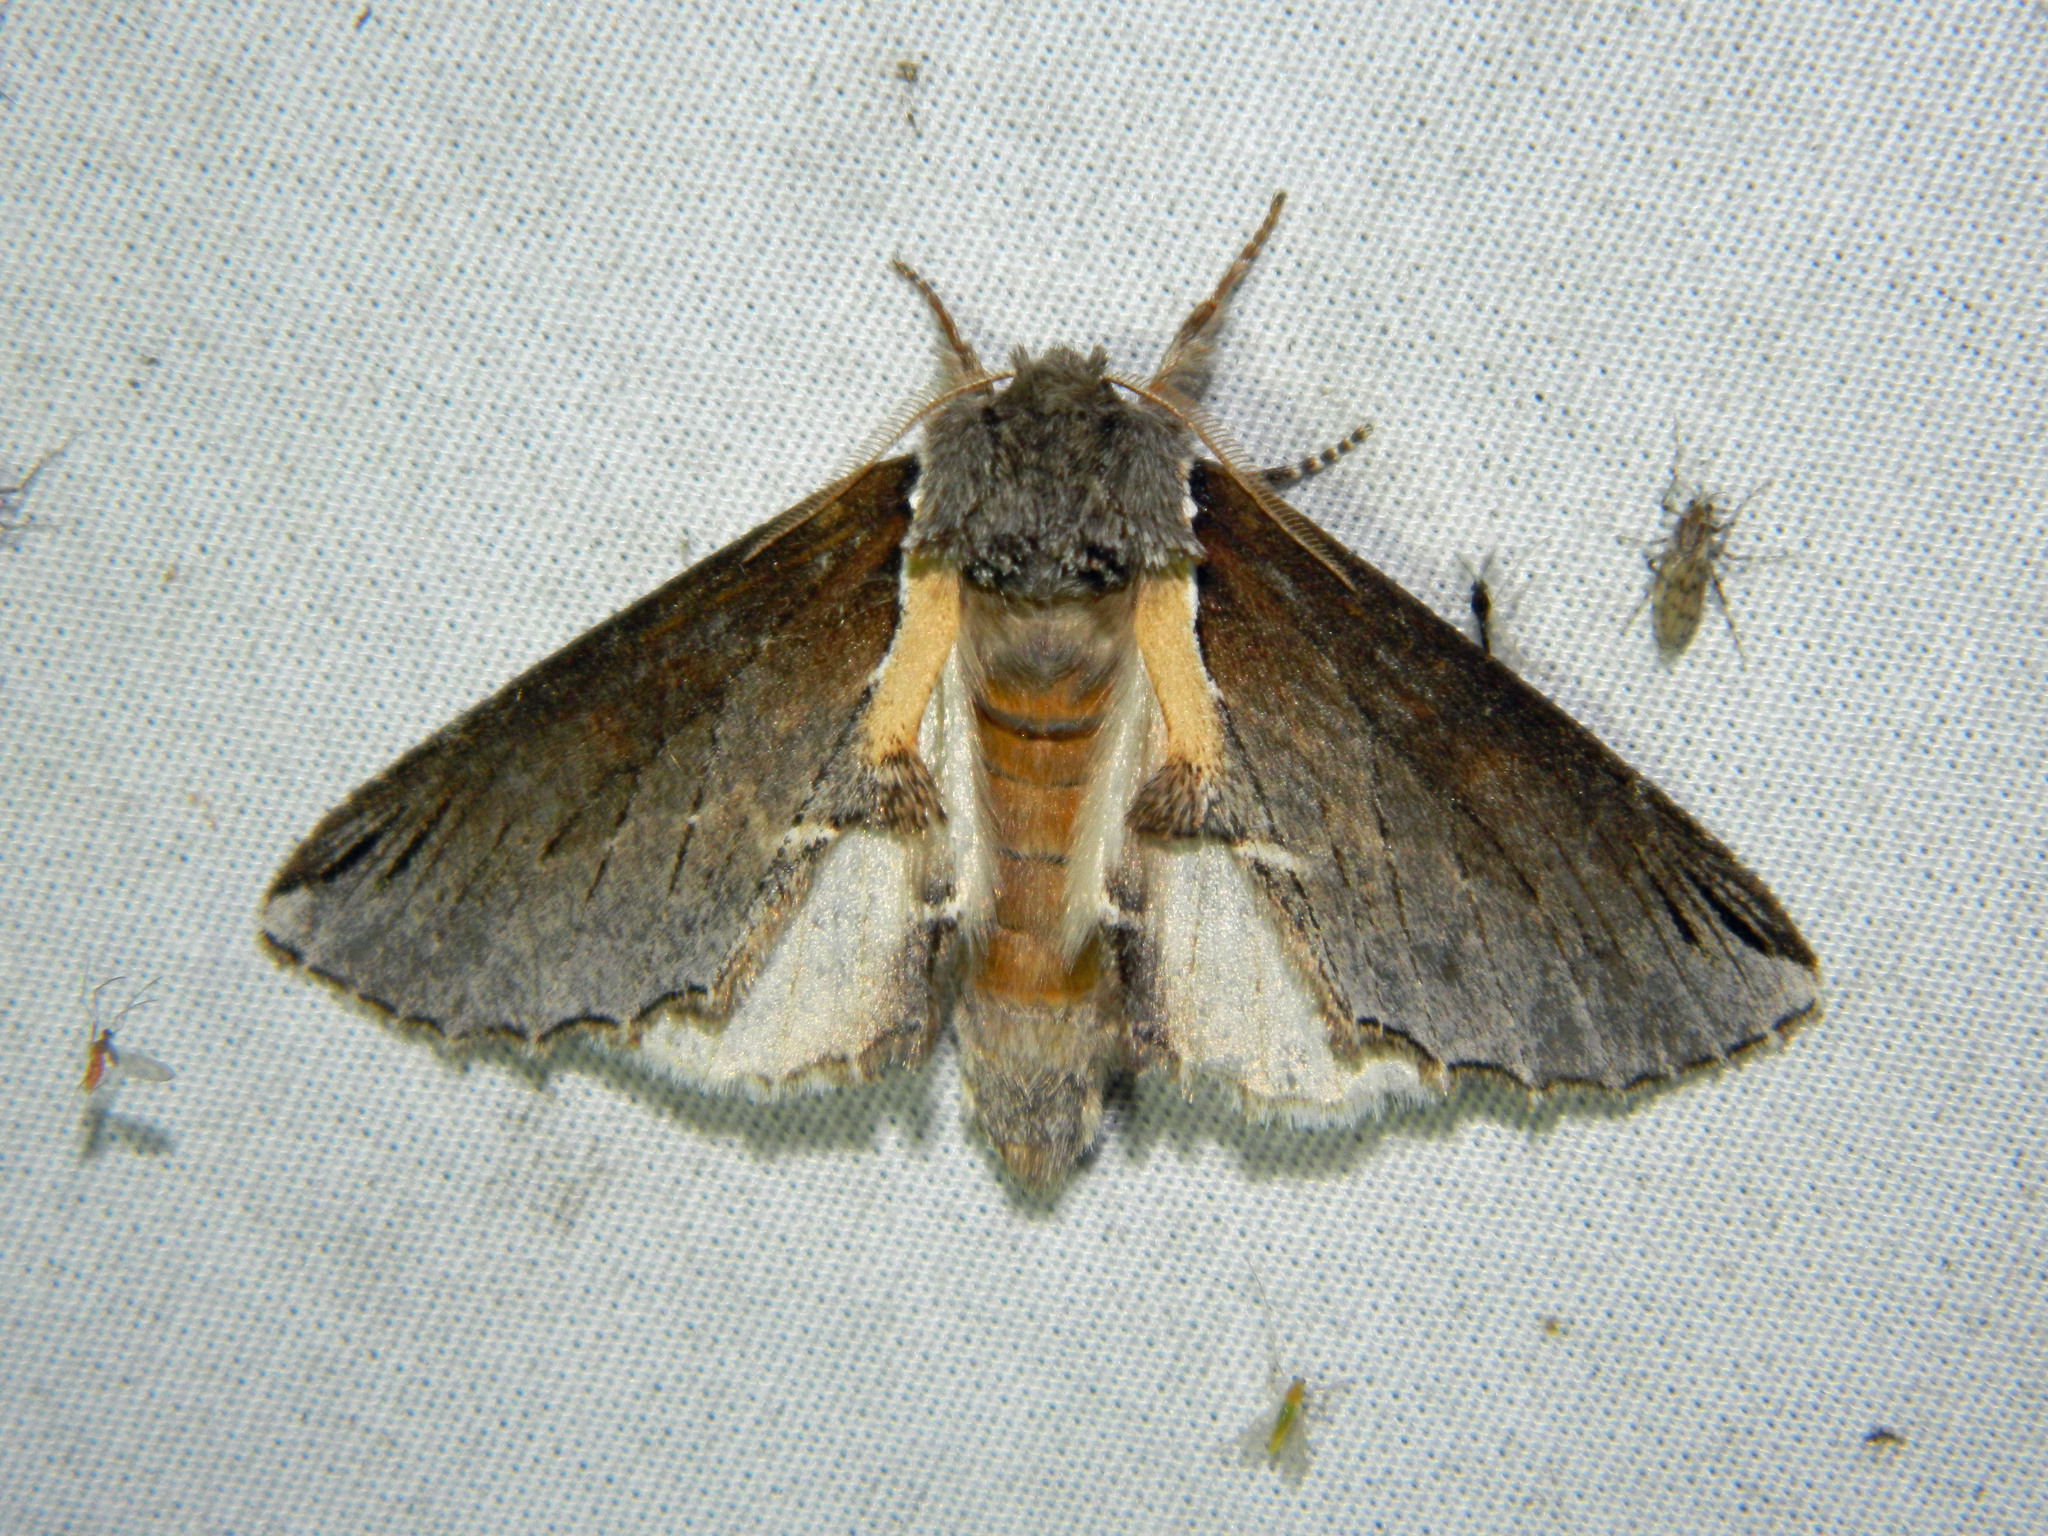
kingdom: Animalia
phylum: Arthropoda
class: Insecta
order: Lepidoptera
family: Notodontidae
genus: Pheosidea
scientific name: Pheosidea elegans
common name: Elegant prominent
